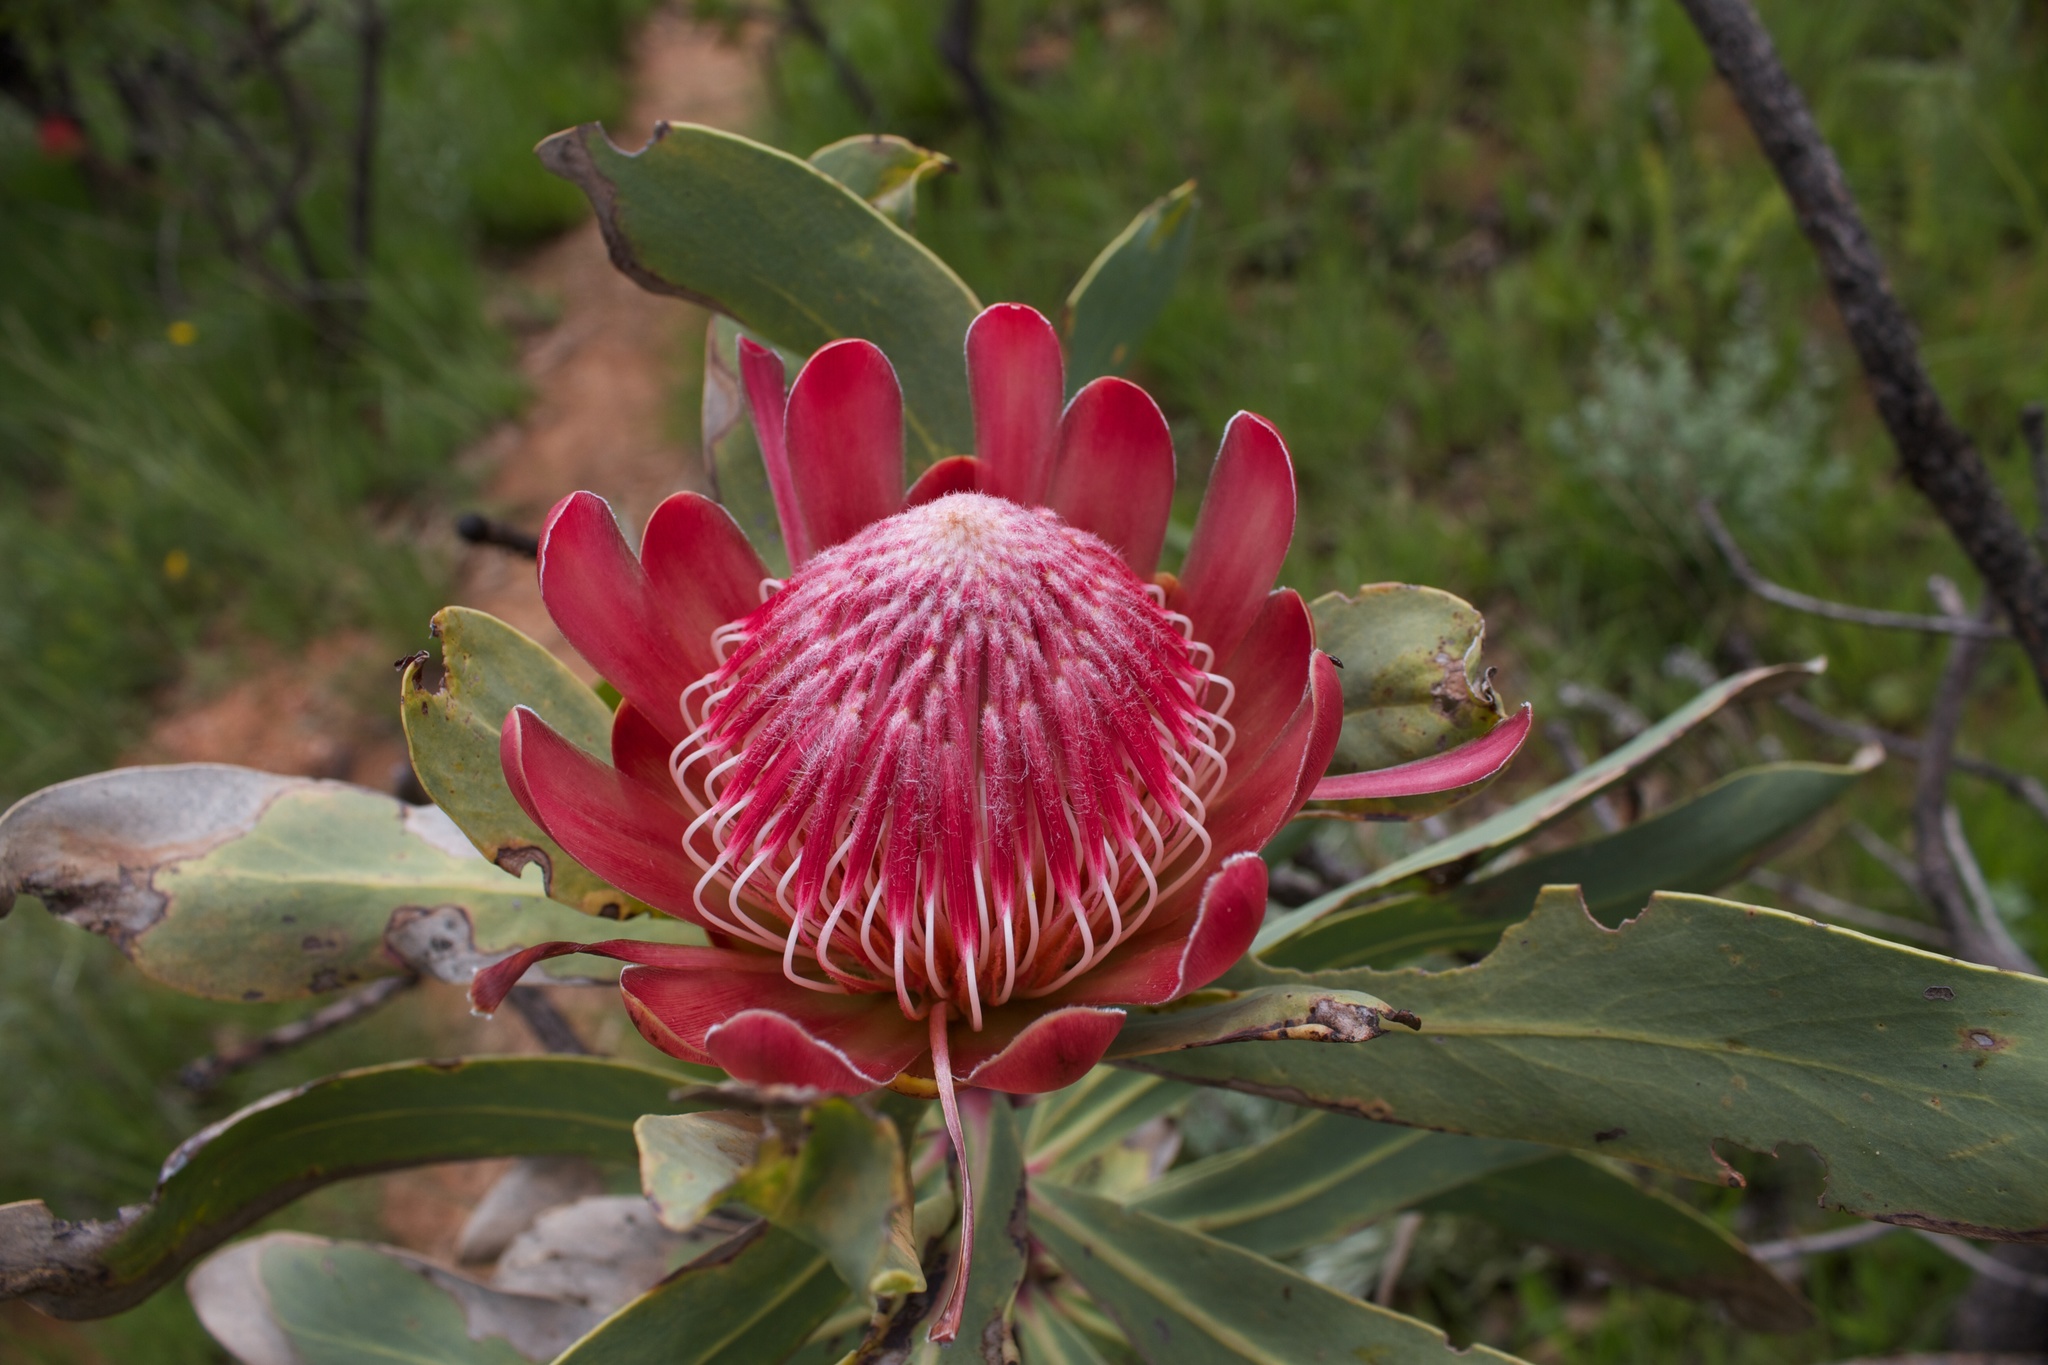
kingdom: Plantae
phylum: Tracheophyta
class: Magnoliopsida
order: Proteales
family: Proteaceae
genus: Protea
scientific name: Protea caffra
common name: Common sugarbush
